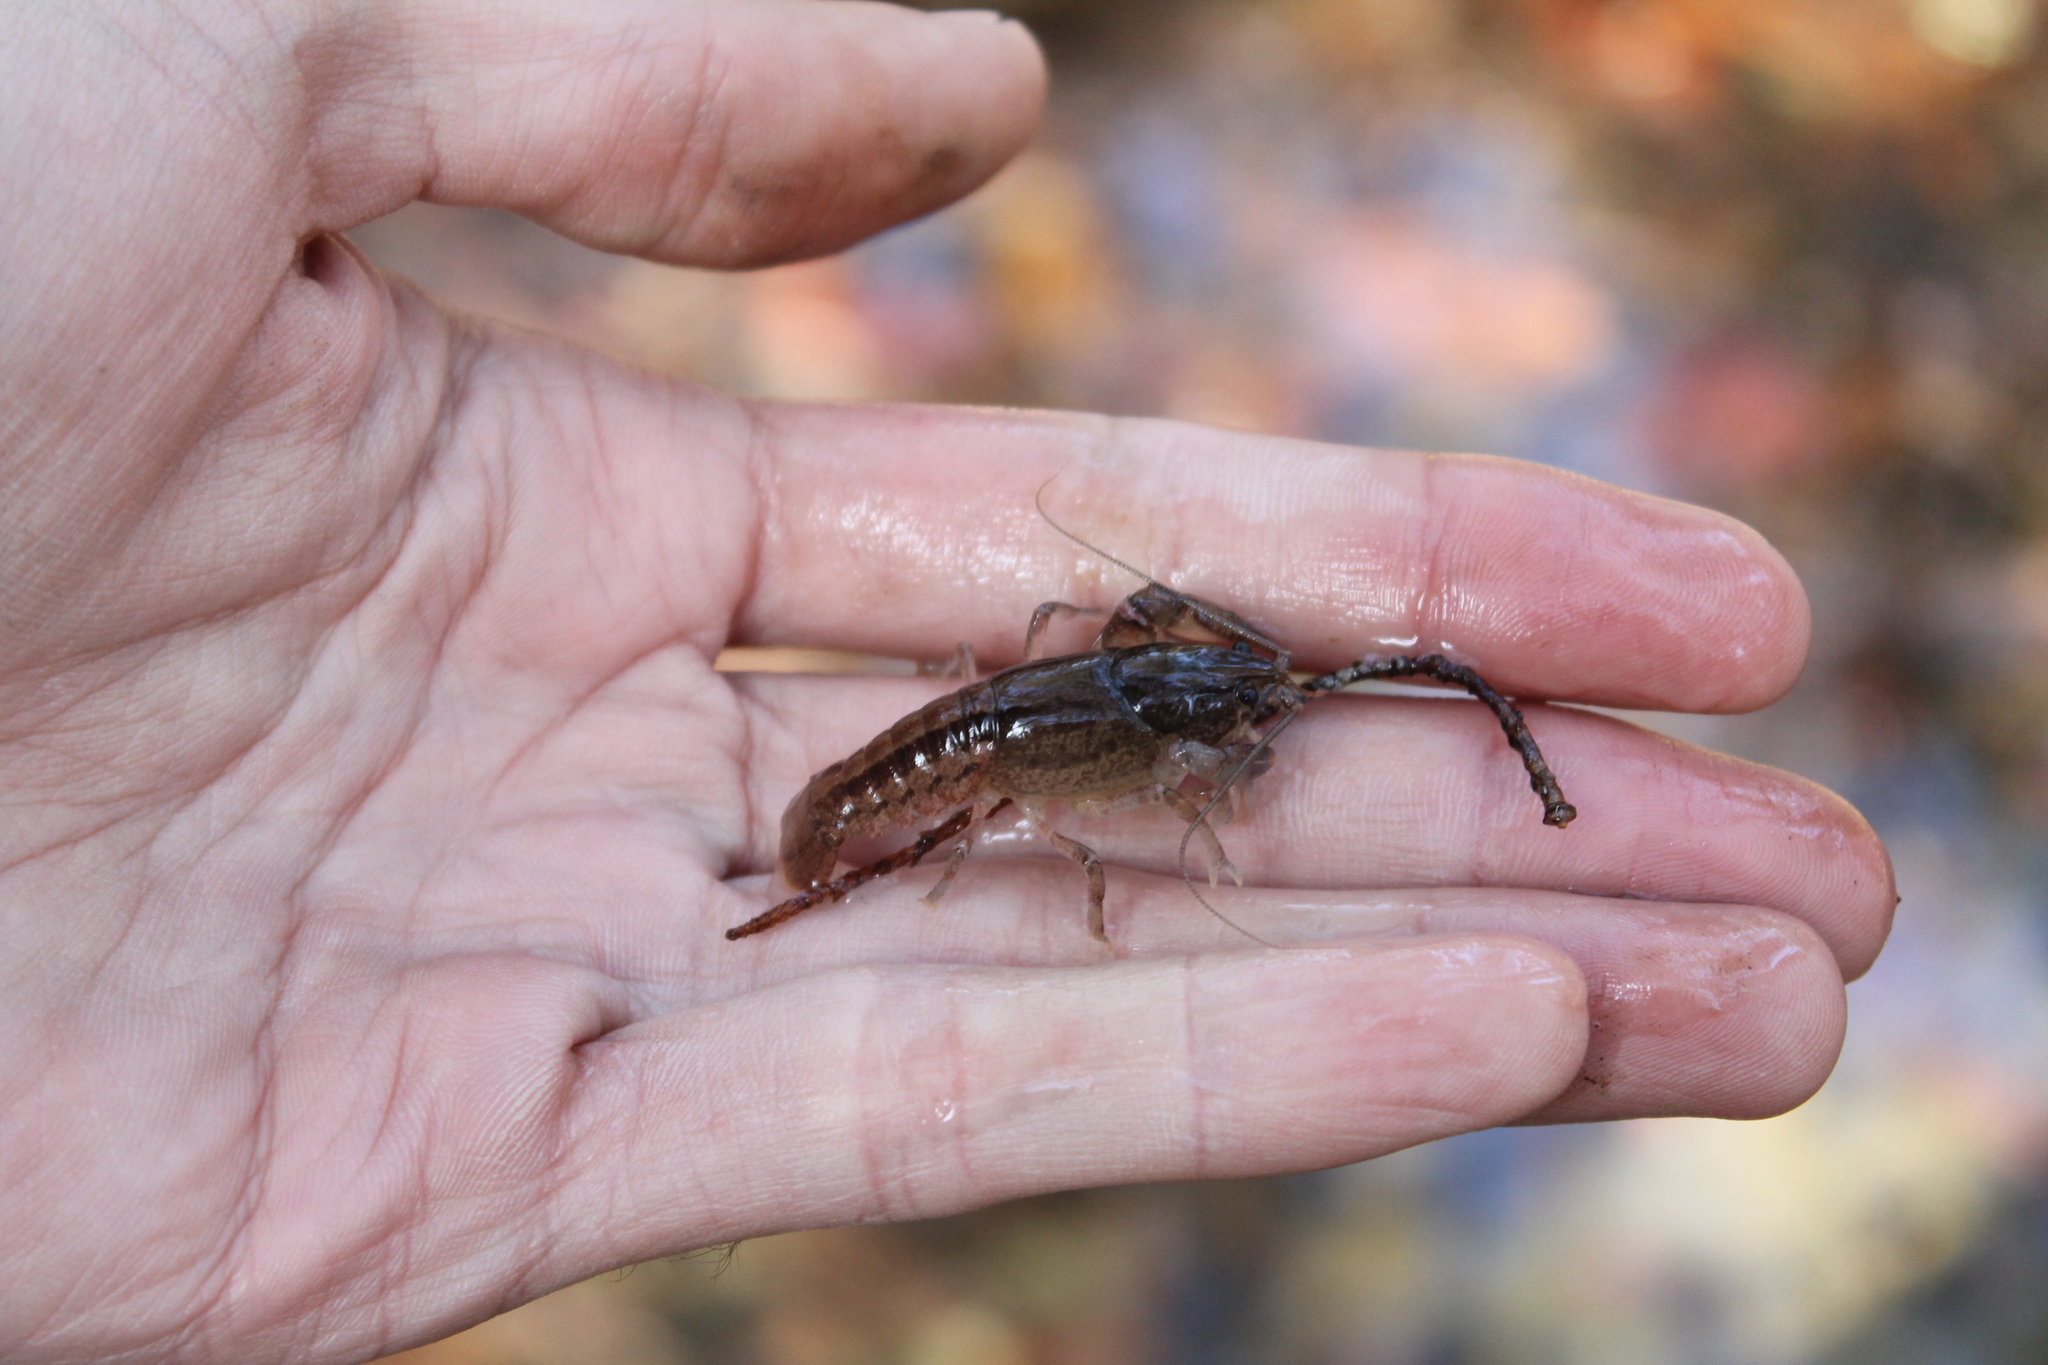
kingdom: Animalia
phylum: Arthropoda
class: Malacostraca
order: Decapoda
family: Cambaridae
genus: Cambarus
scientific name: Cambarus striatus
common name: Ambiguous crayfish
